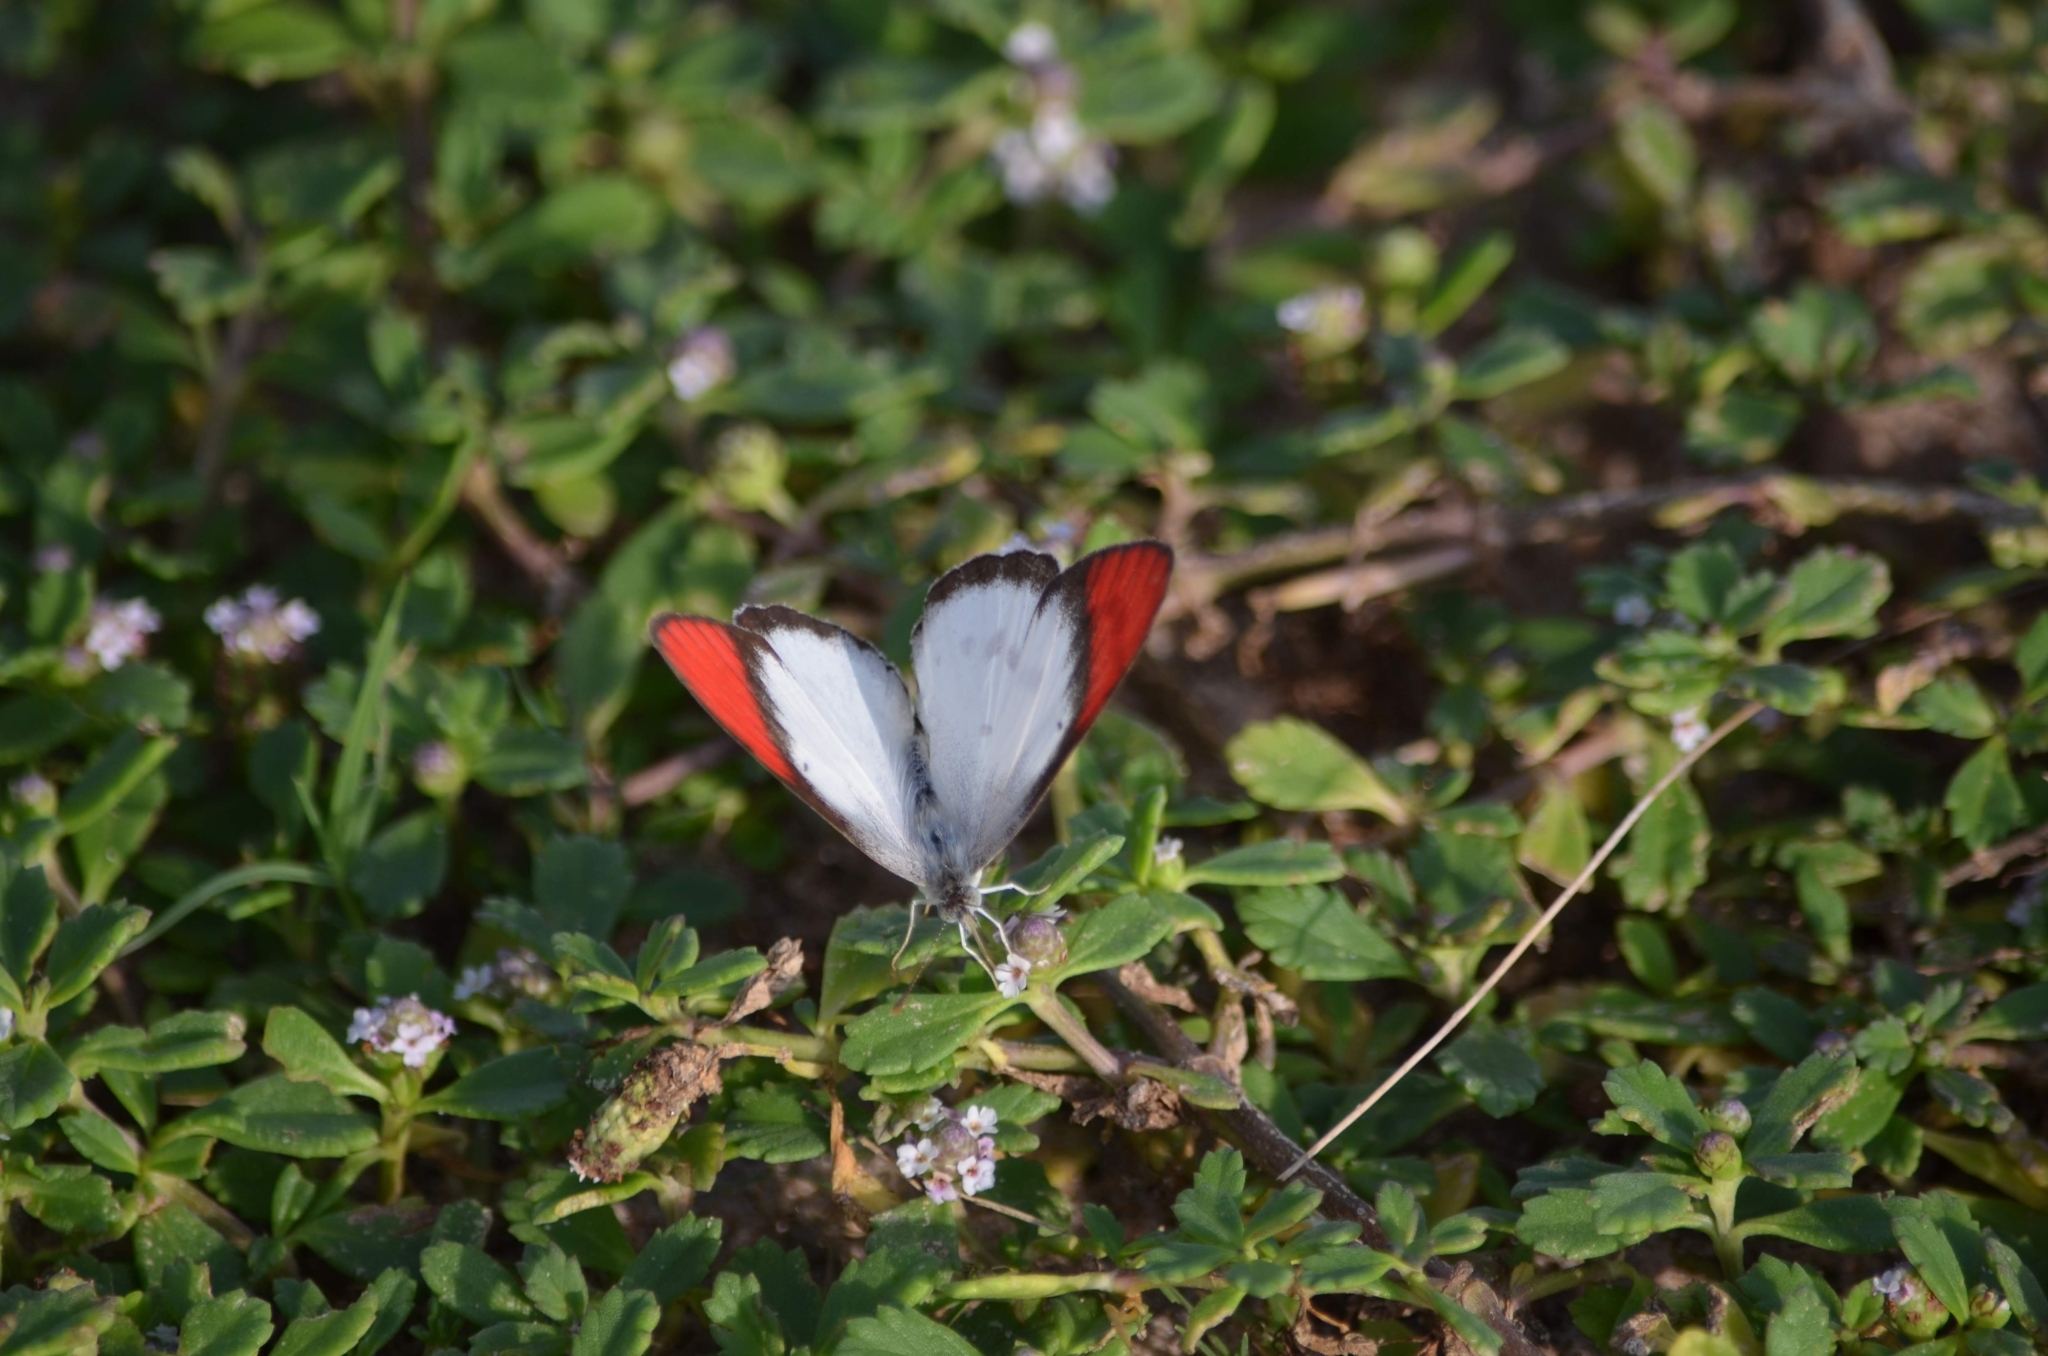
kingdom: Animalia
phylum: Arthropoda
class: Insecta
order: Lepidoptera
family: Pieridae
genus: Colotis
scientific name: Colotis danae
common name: Crimson tip
